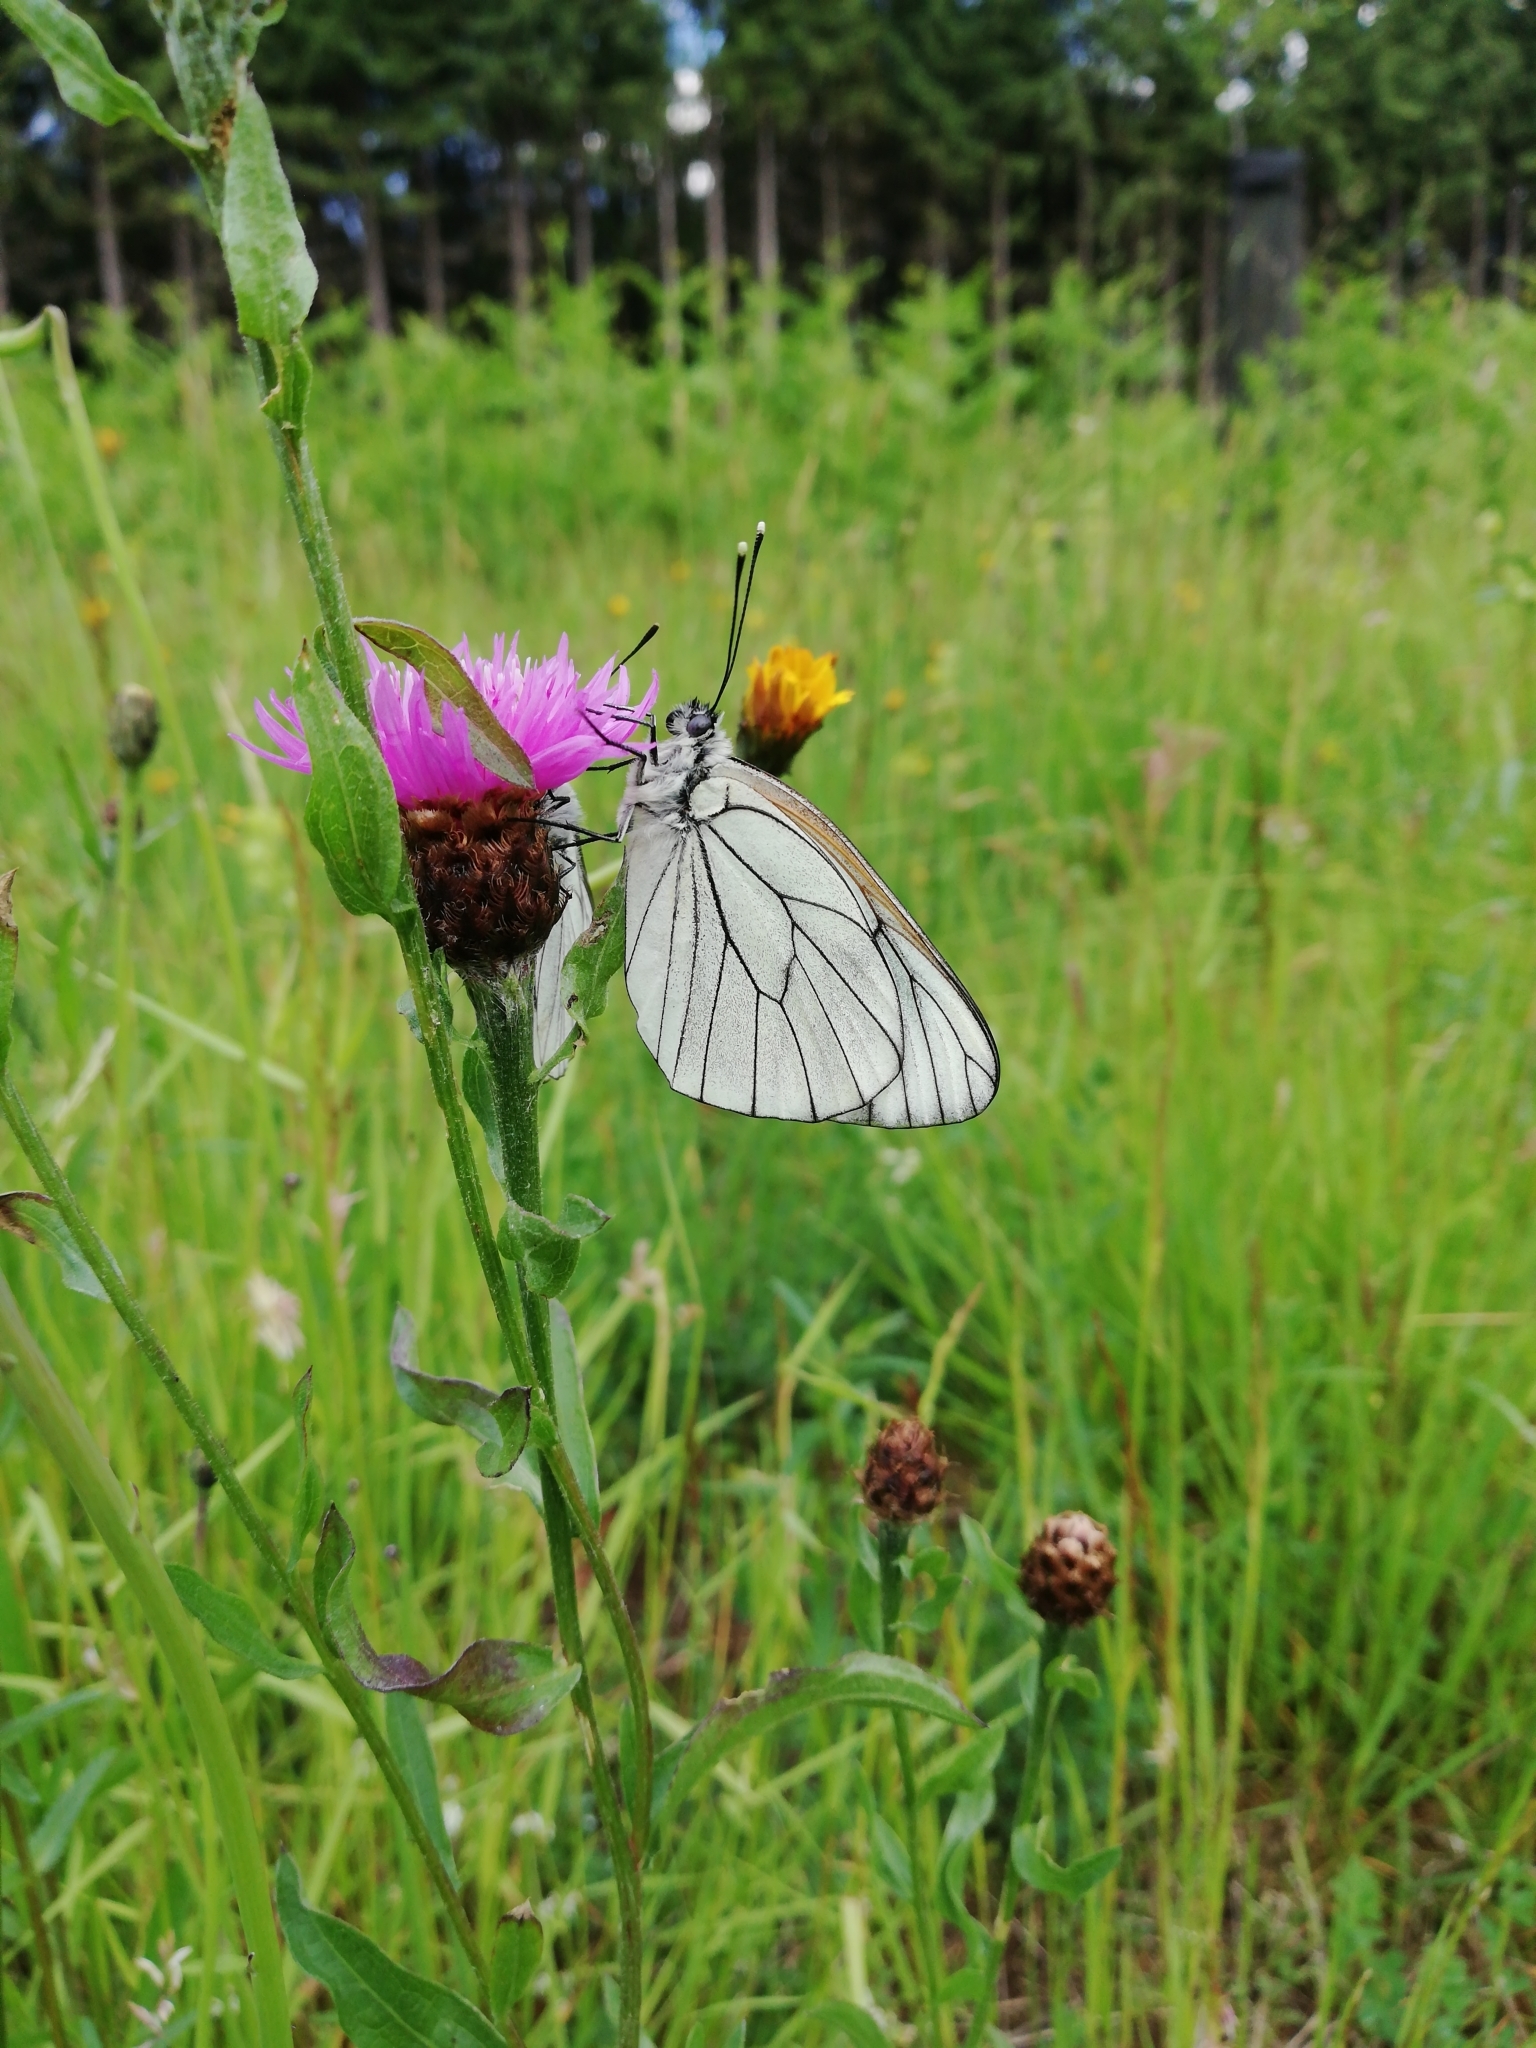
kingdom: Animalia
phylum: Arthropoda
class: Insecta
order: Lepidoptera
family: Pieridae
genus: Aporia
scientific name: Aporia crataegi
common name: Black-veined white
